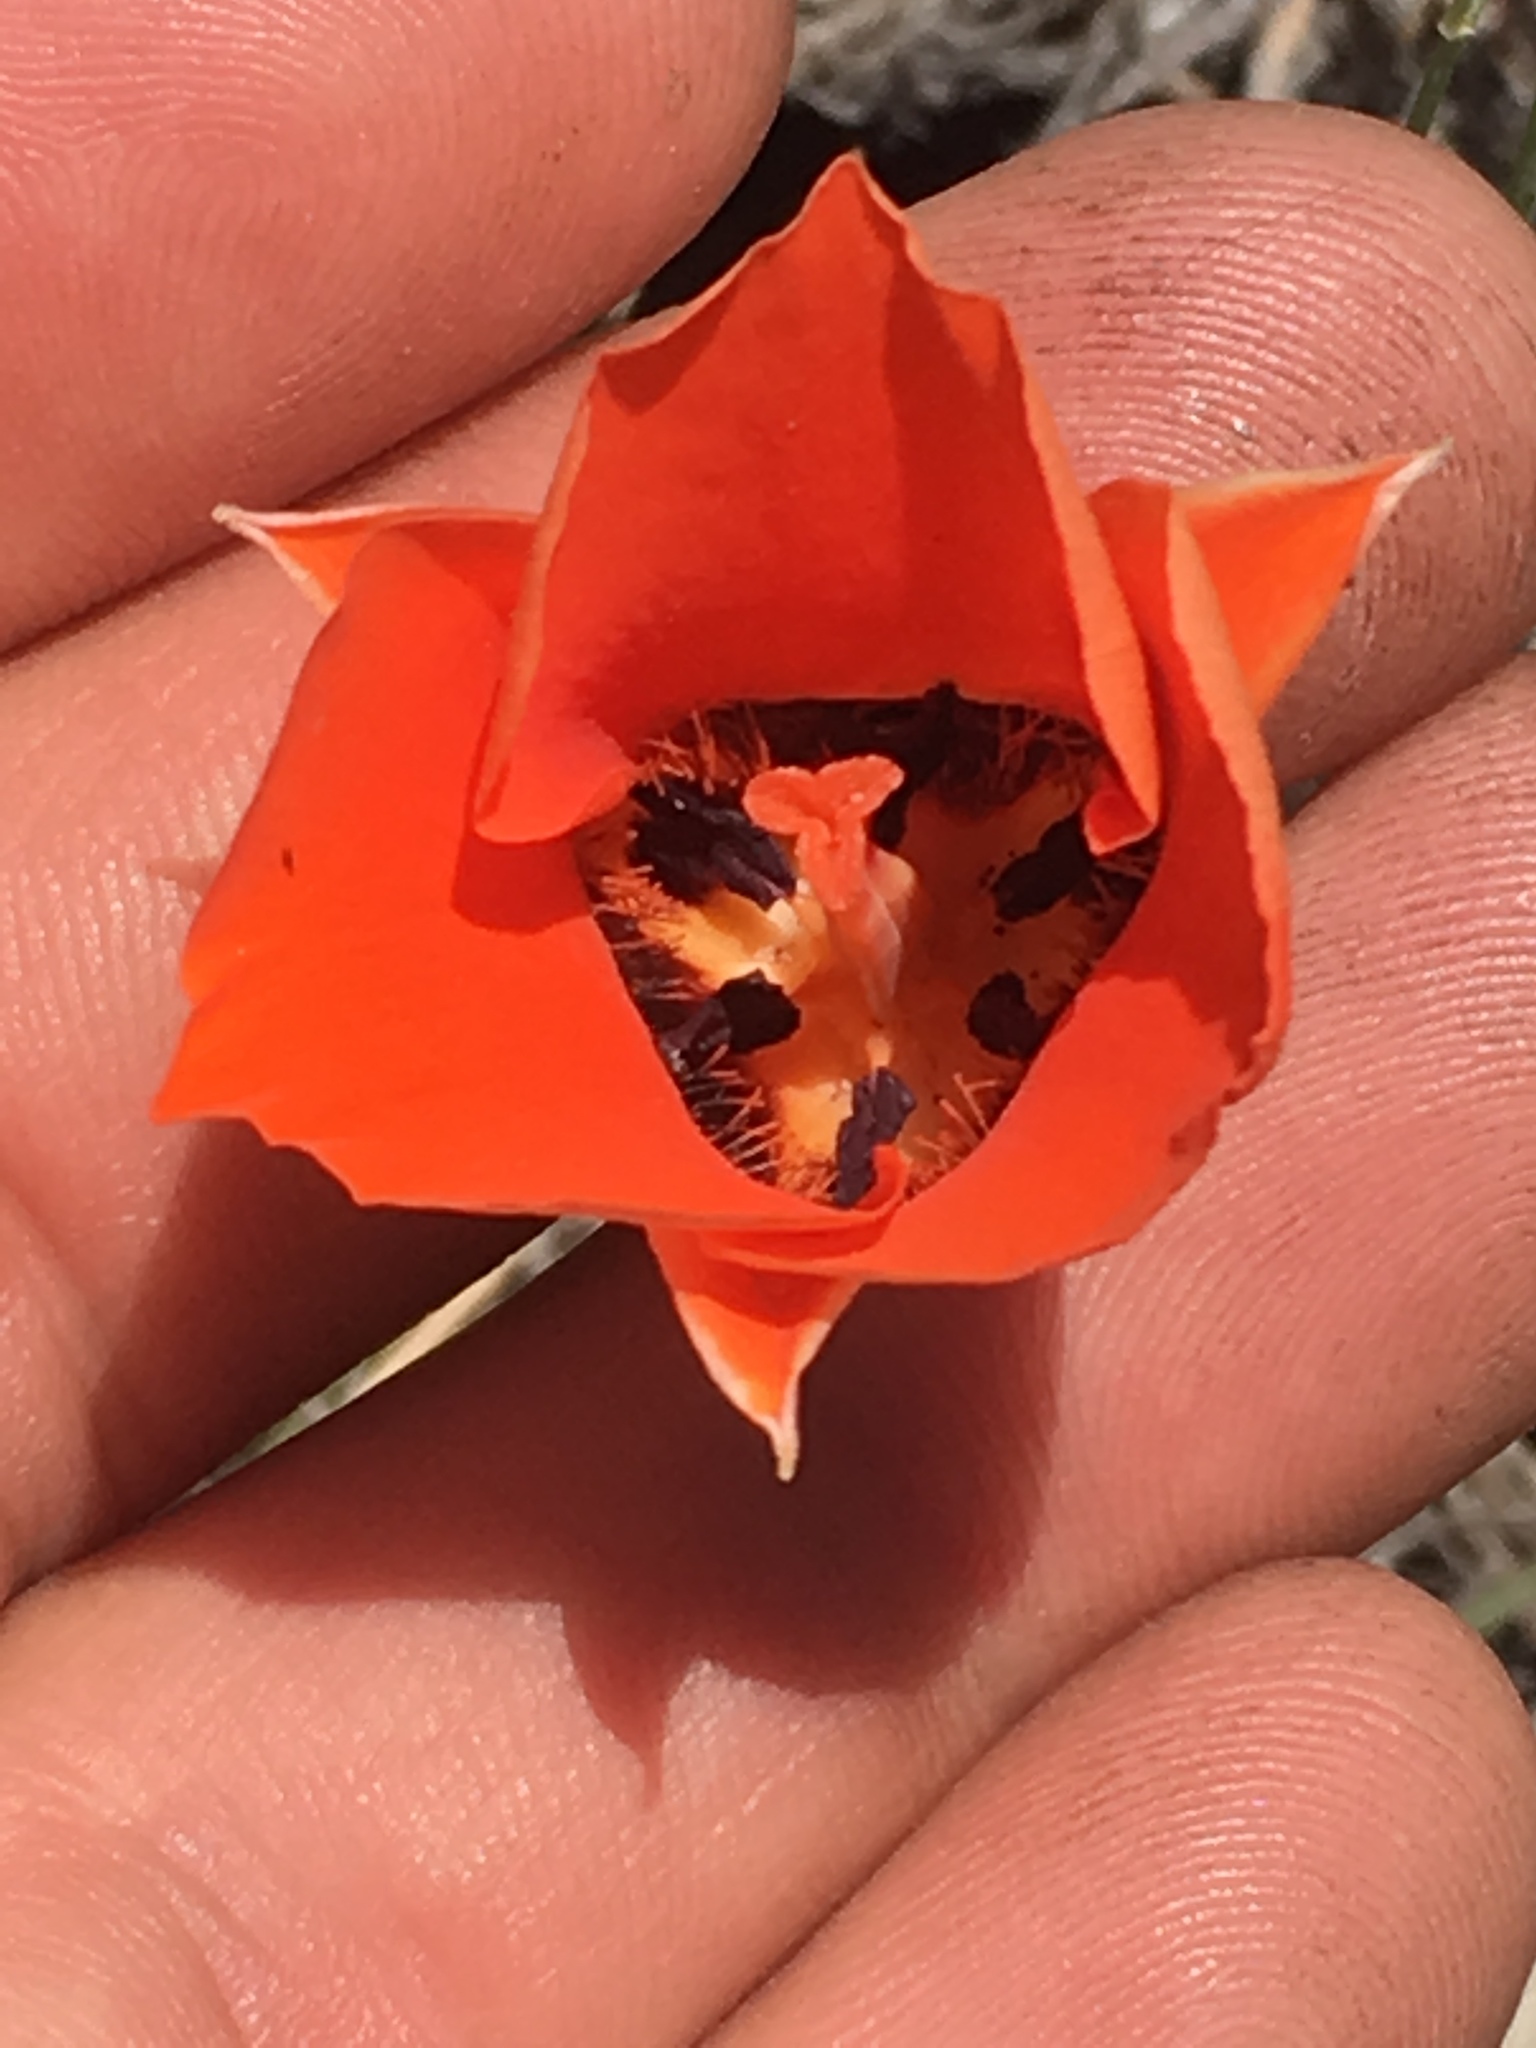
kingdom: Plantae
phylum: Tracheophyta
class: Liliopsida
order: Liliales
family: Liliaceae
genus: Calochortus
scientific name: Calochortus kennedyi
